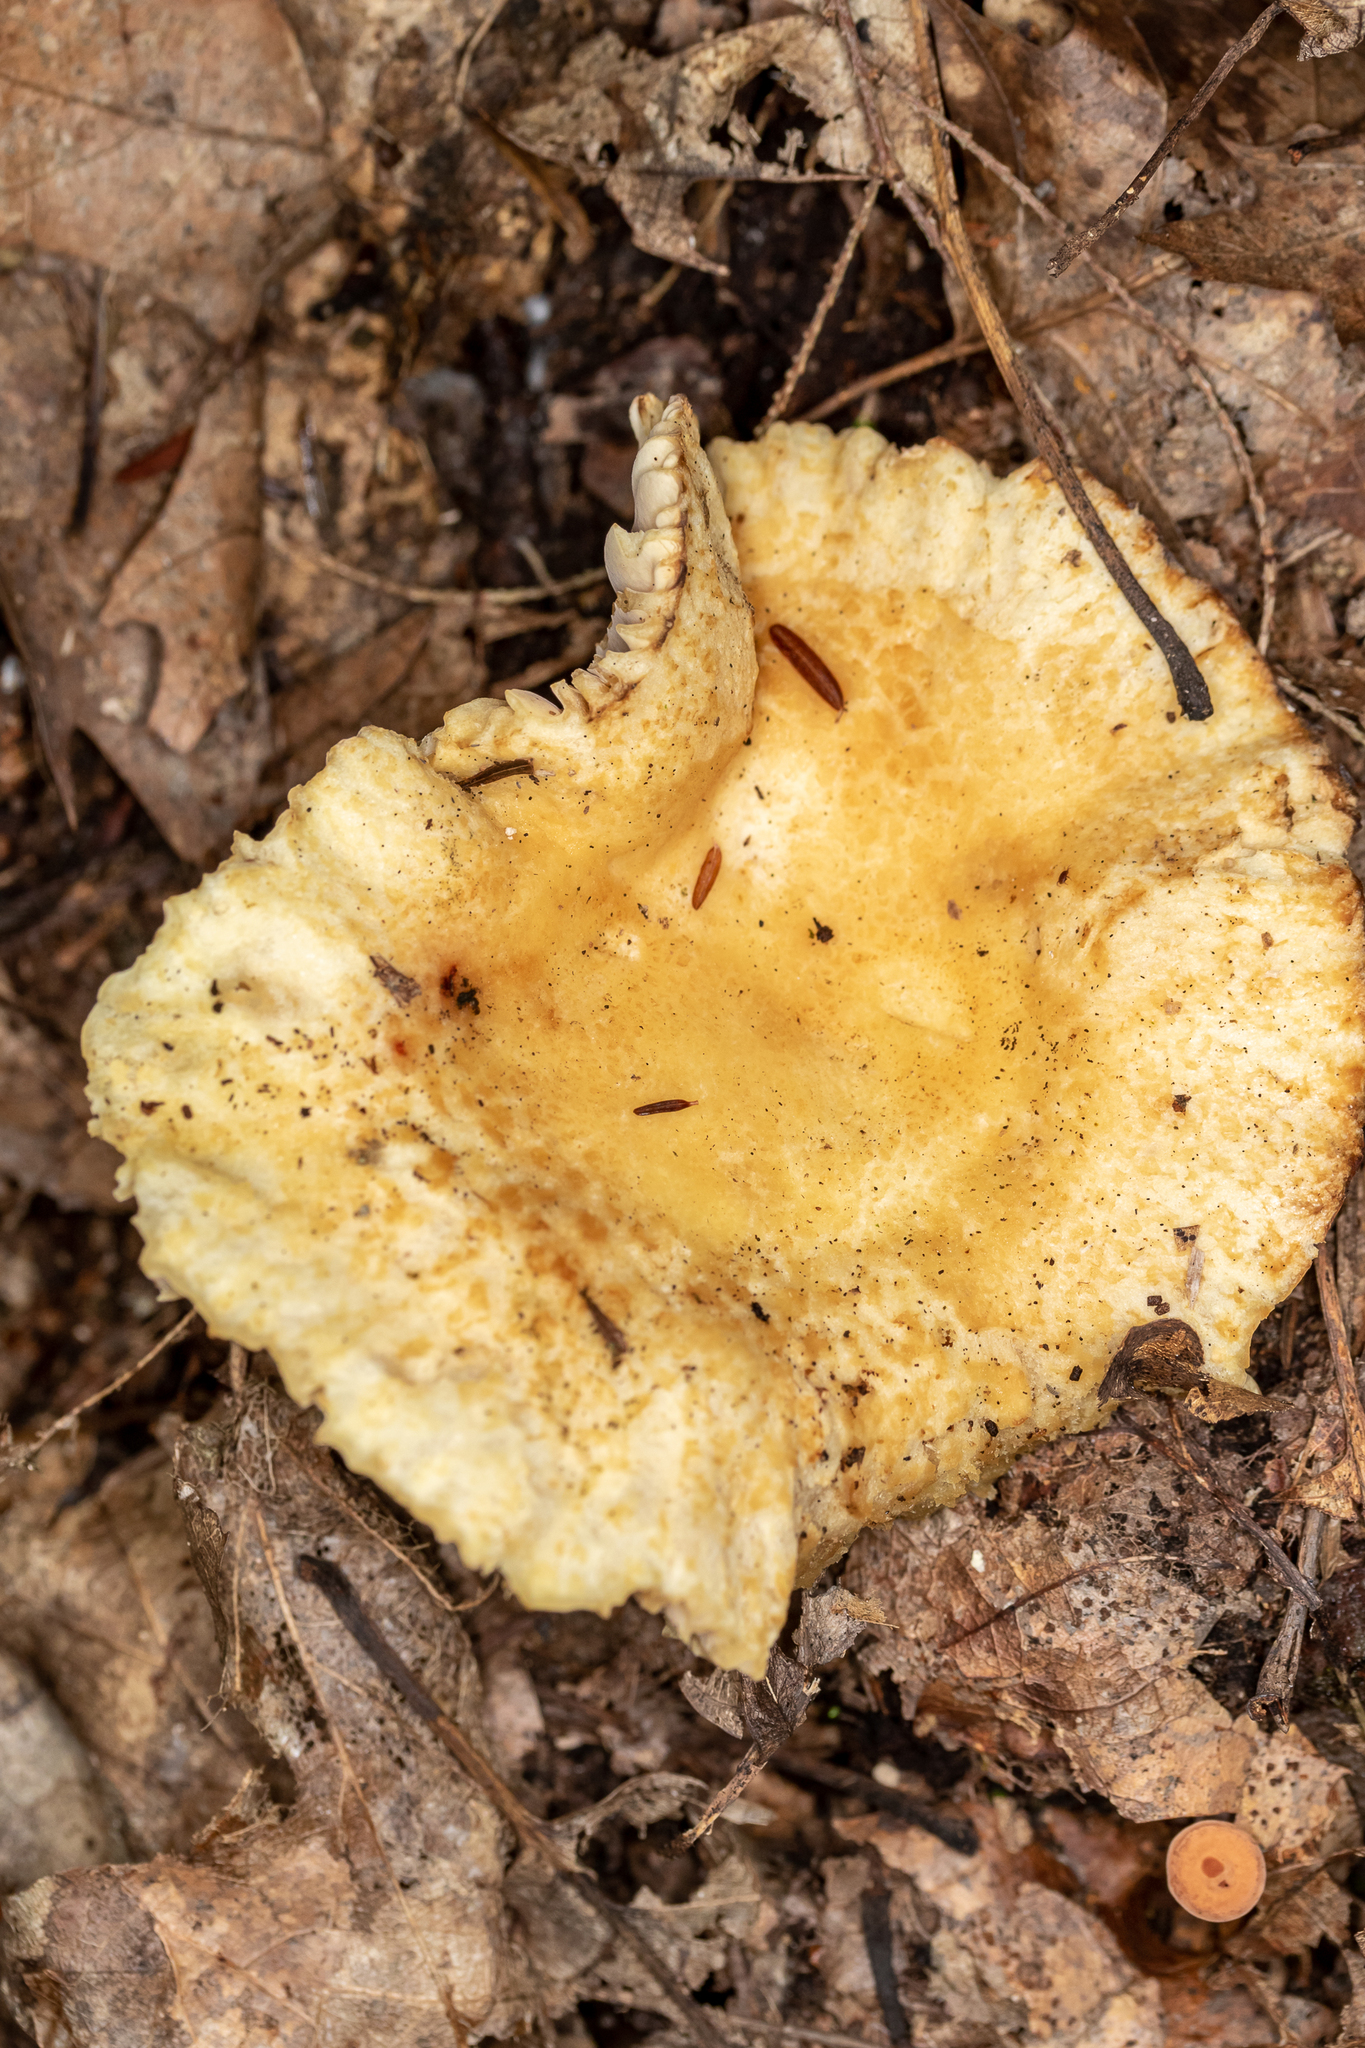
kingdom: Fungi
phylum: Basidiomycota
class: Agaricomycetes
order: Russulales
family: Russulaceae
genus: Russula
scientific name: Russula earlei
